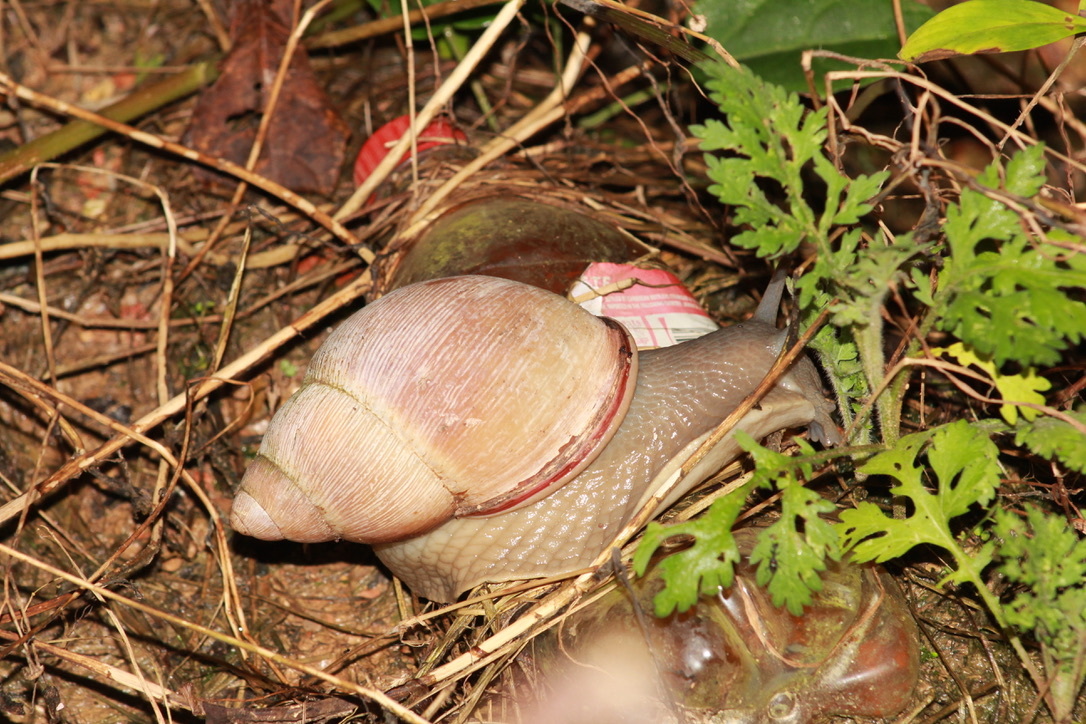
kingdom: Animalia
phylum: Mollusca
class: Gastropoda
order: Stylommatophora
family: Strophocheilidae
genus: Megalobulimus
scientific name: Megalobulimus oblongus
